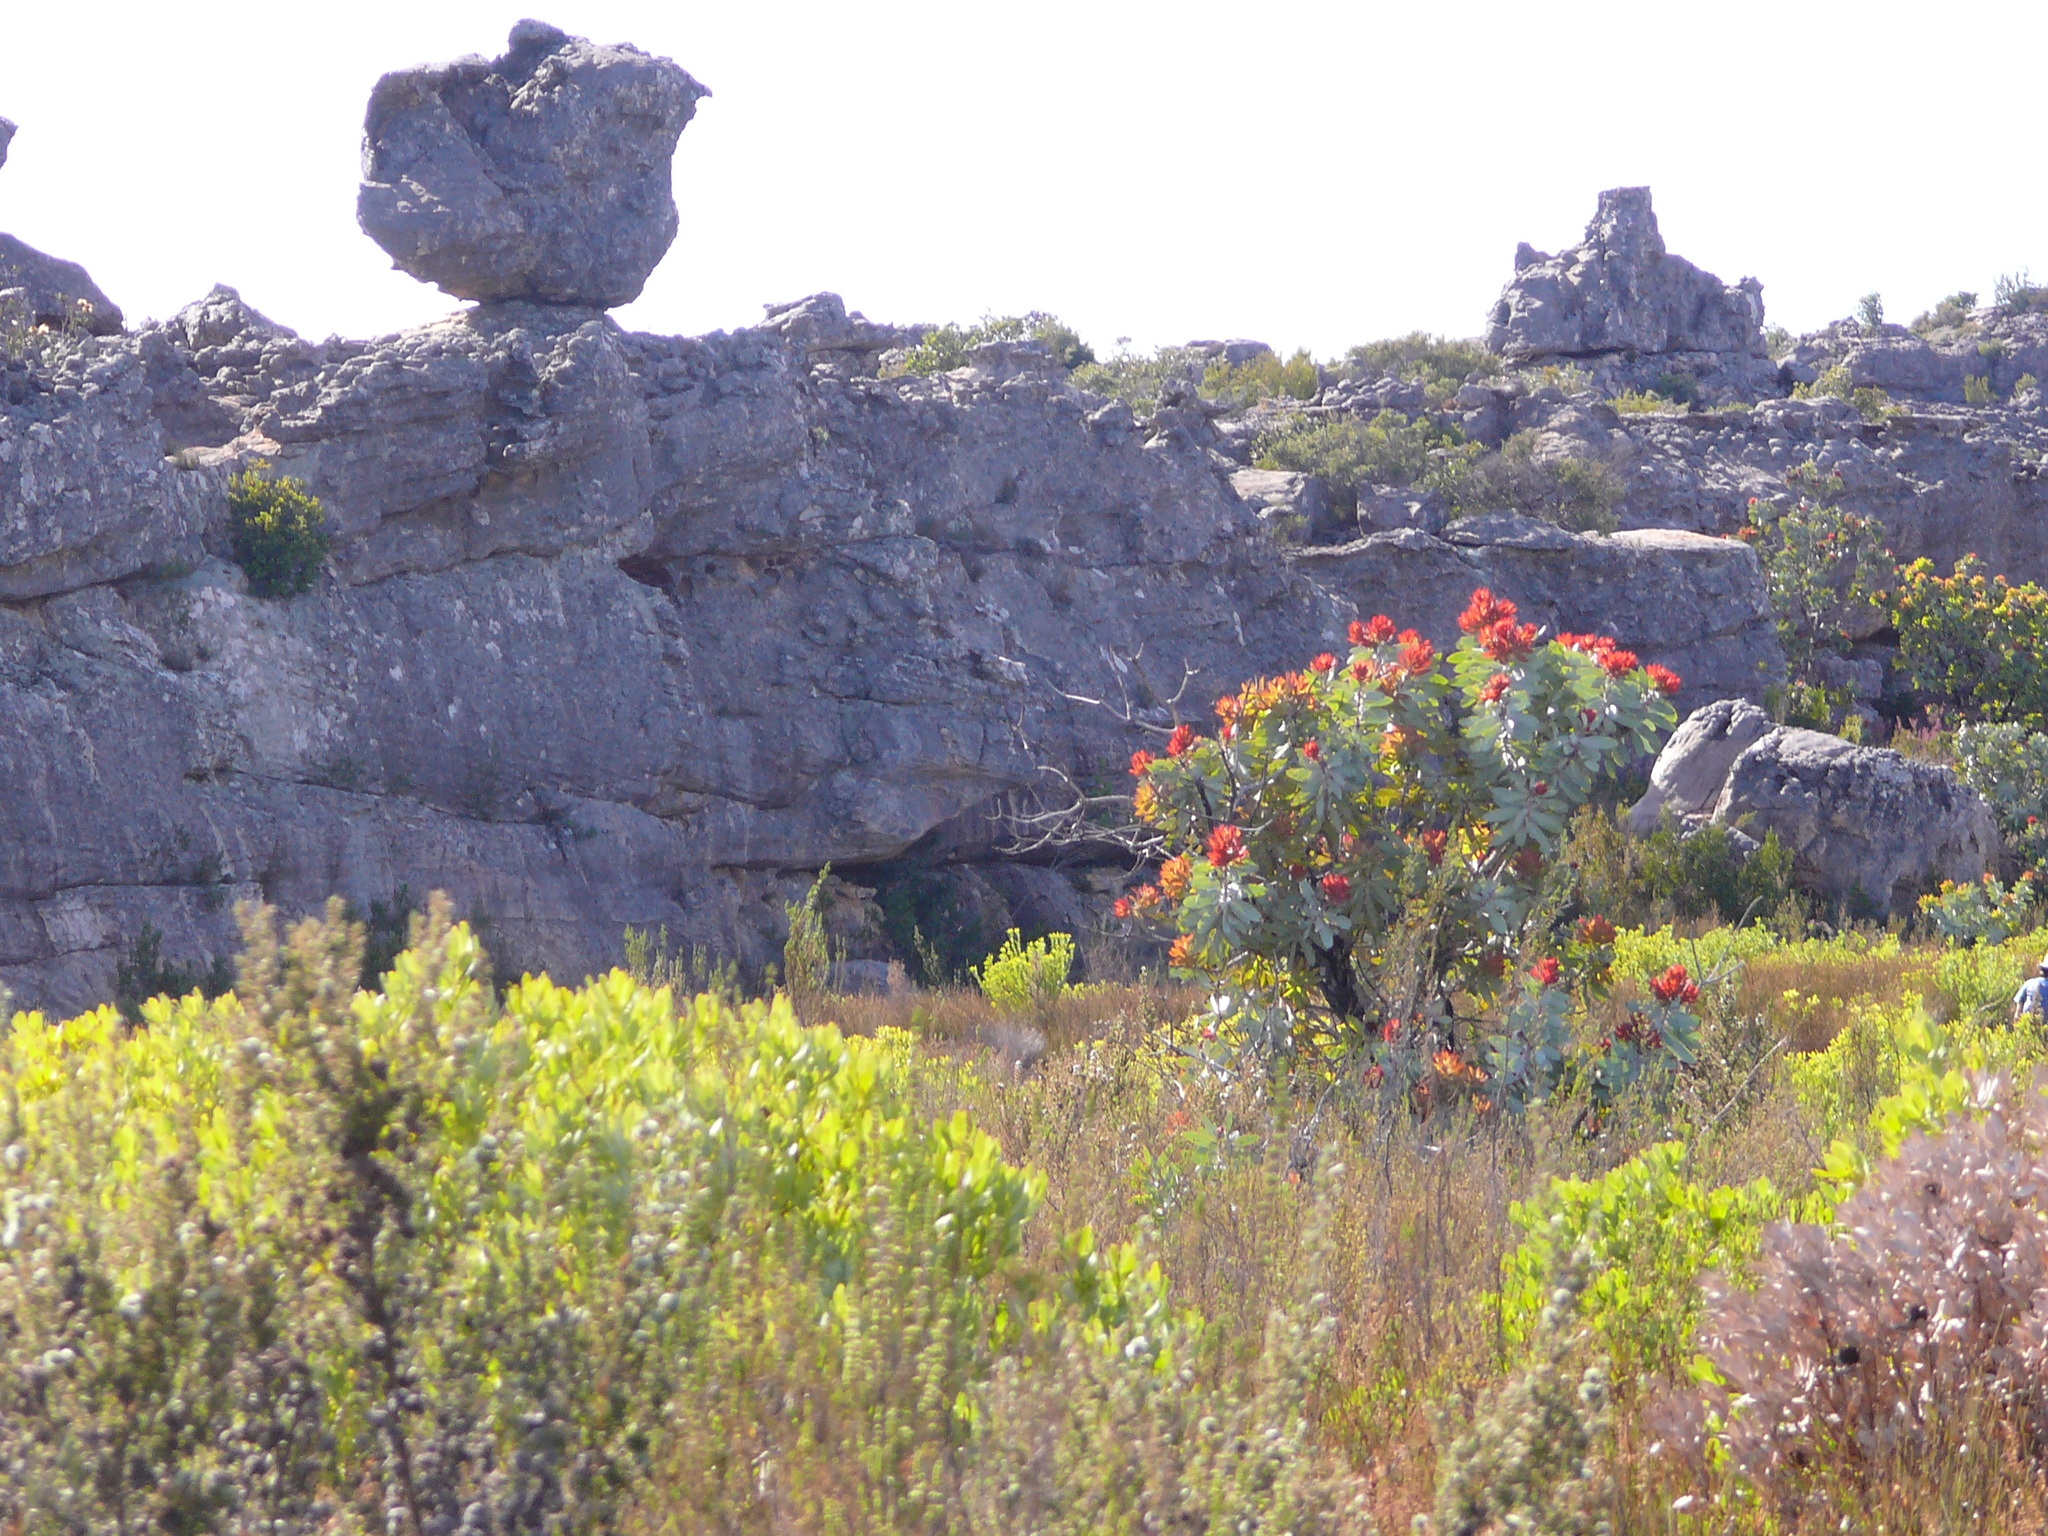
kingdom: Plantae
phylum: Tracheophyta
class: Magnoliopsida
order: Proteales
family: Proteaceae
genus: Protea
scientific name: Protea nitida
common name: Tree protea
